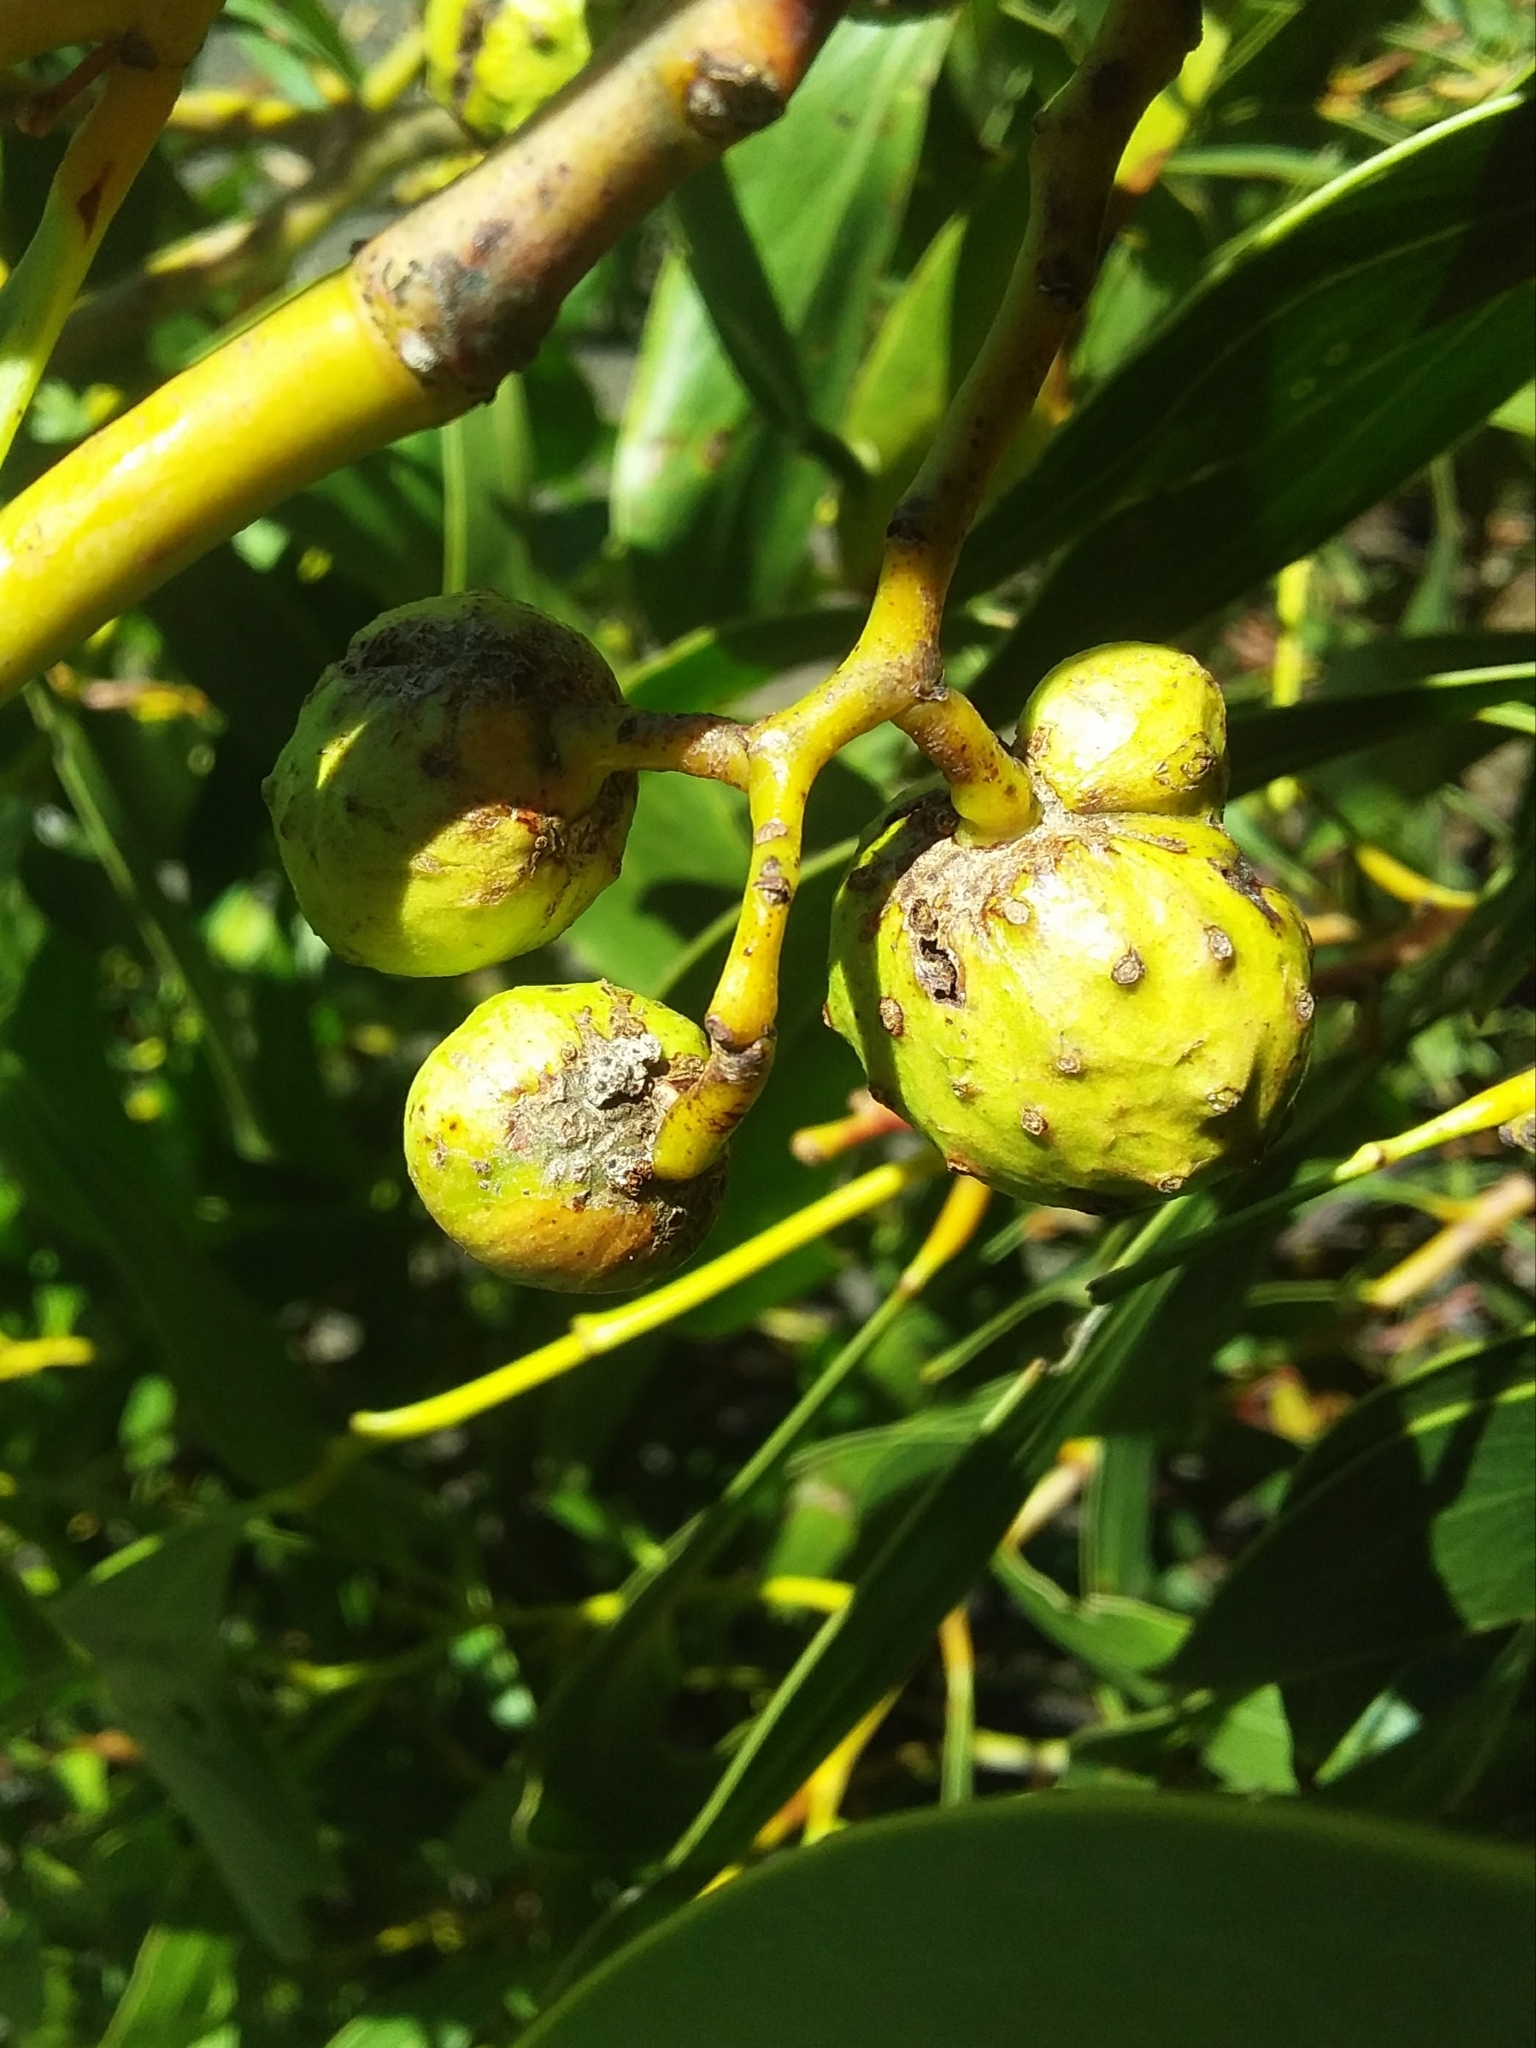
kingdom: Animalia
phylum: Arthropoda
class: Insecta
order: Hymenoptera
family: Pteromalidae
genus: Trichilogaster
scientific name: Trichilogaster signiventris
